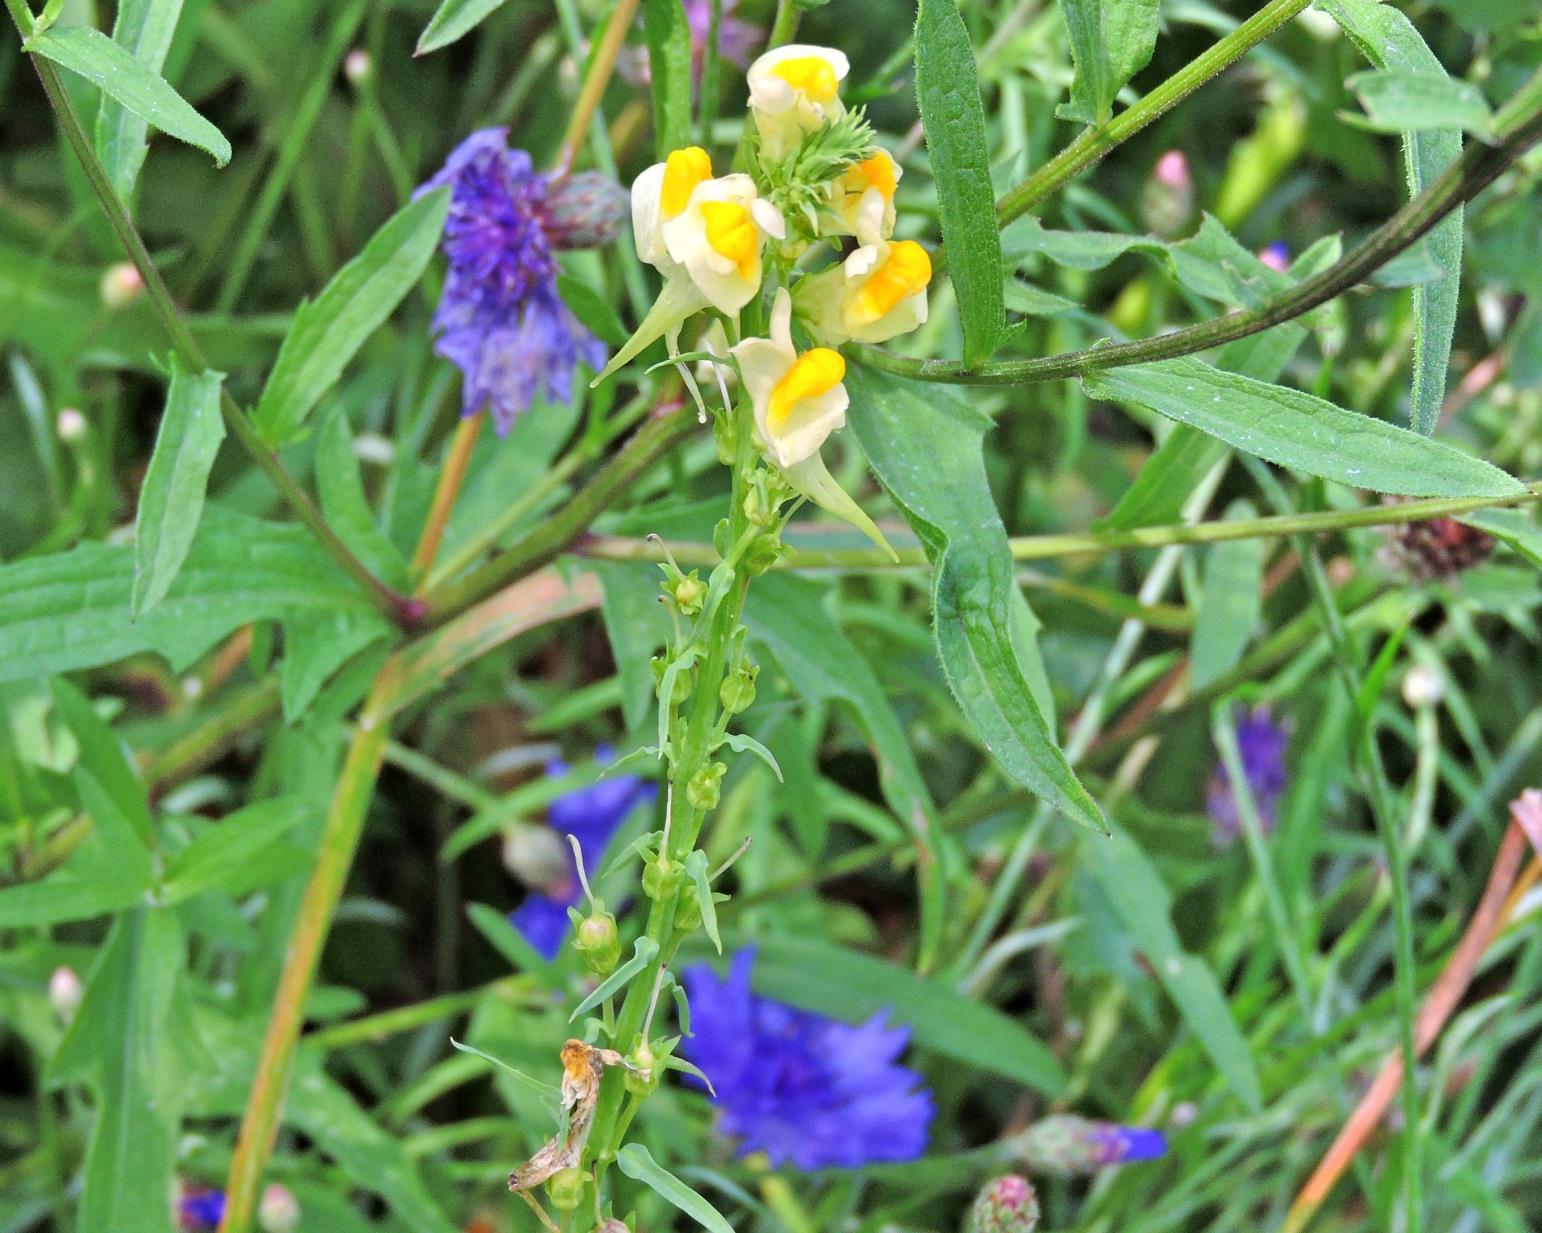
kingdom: Plantae
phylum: Tracheophyta
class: Magnoliopsida
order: Lamiales
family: Plantaginaceae
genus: Linaria
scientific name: Linaria vulgaris
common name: Butter and eggs
